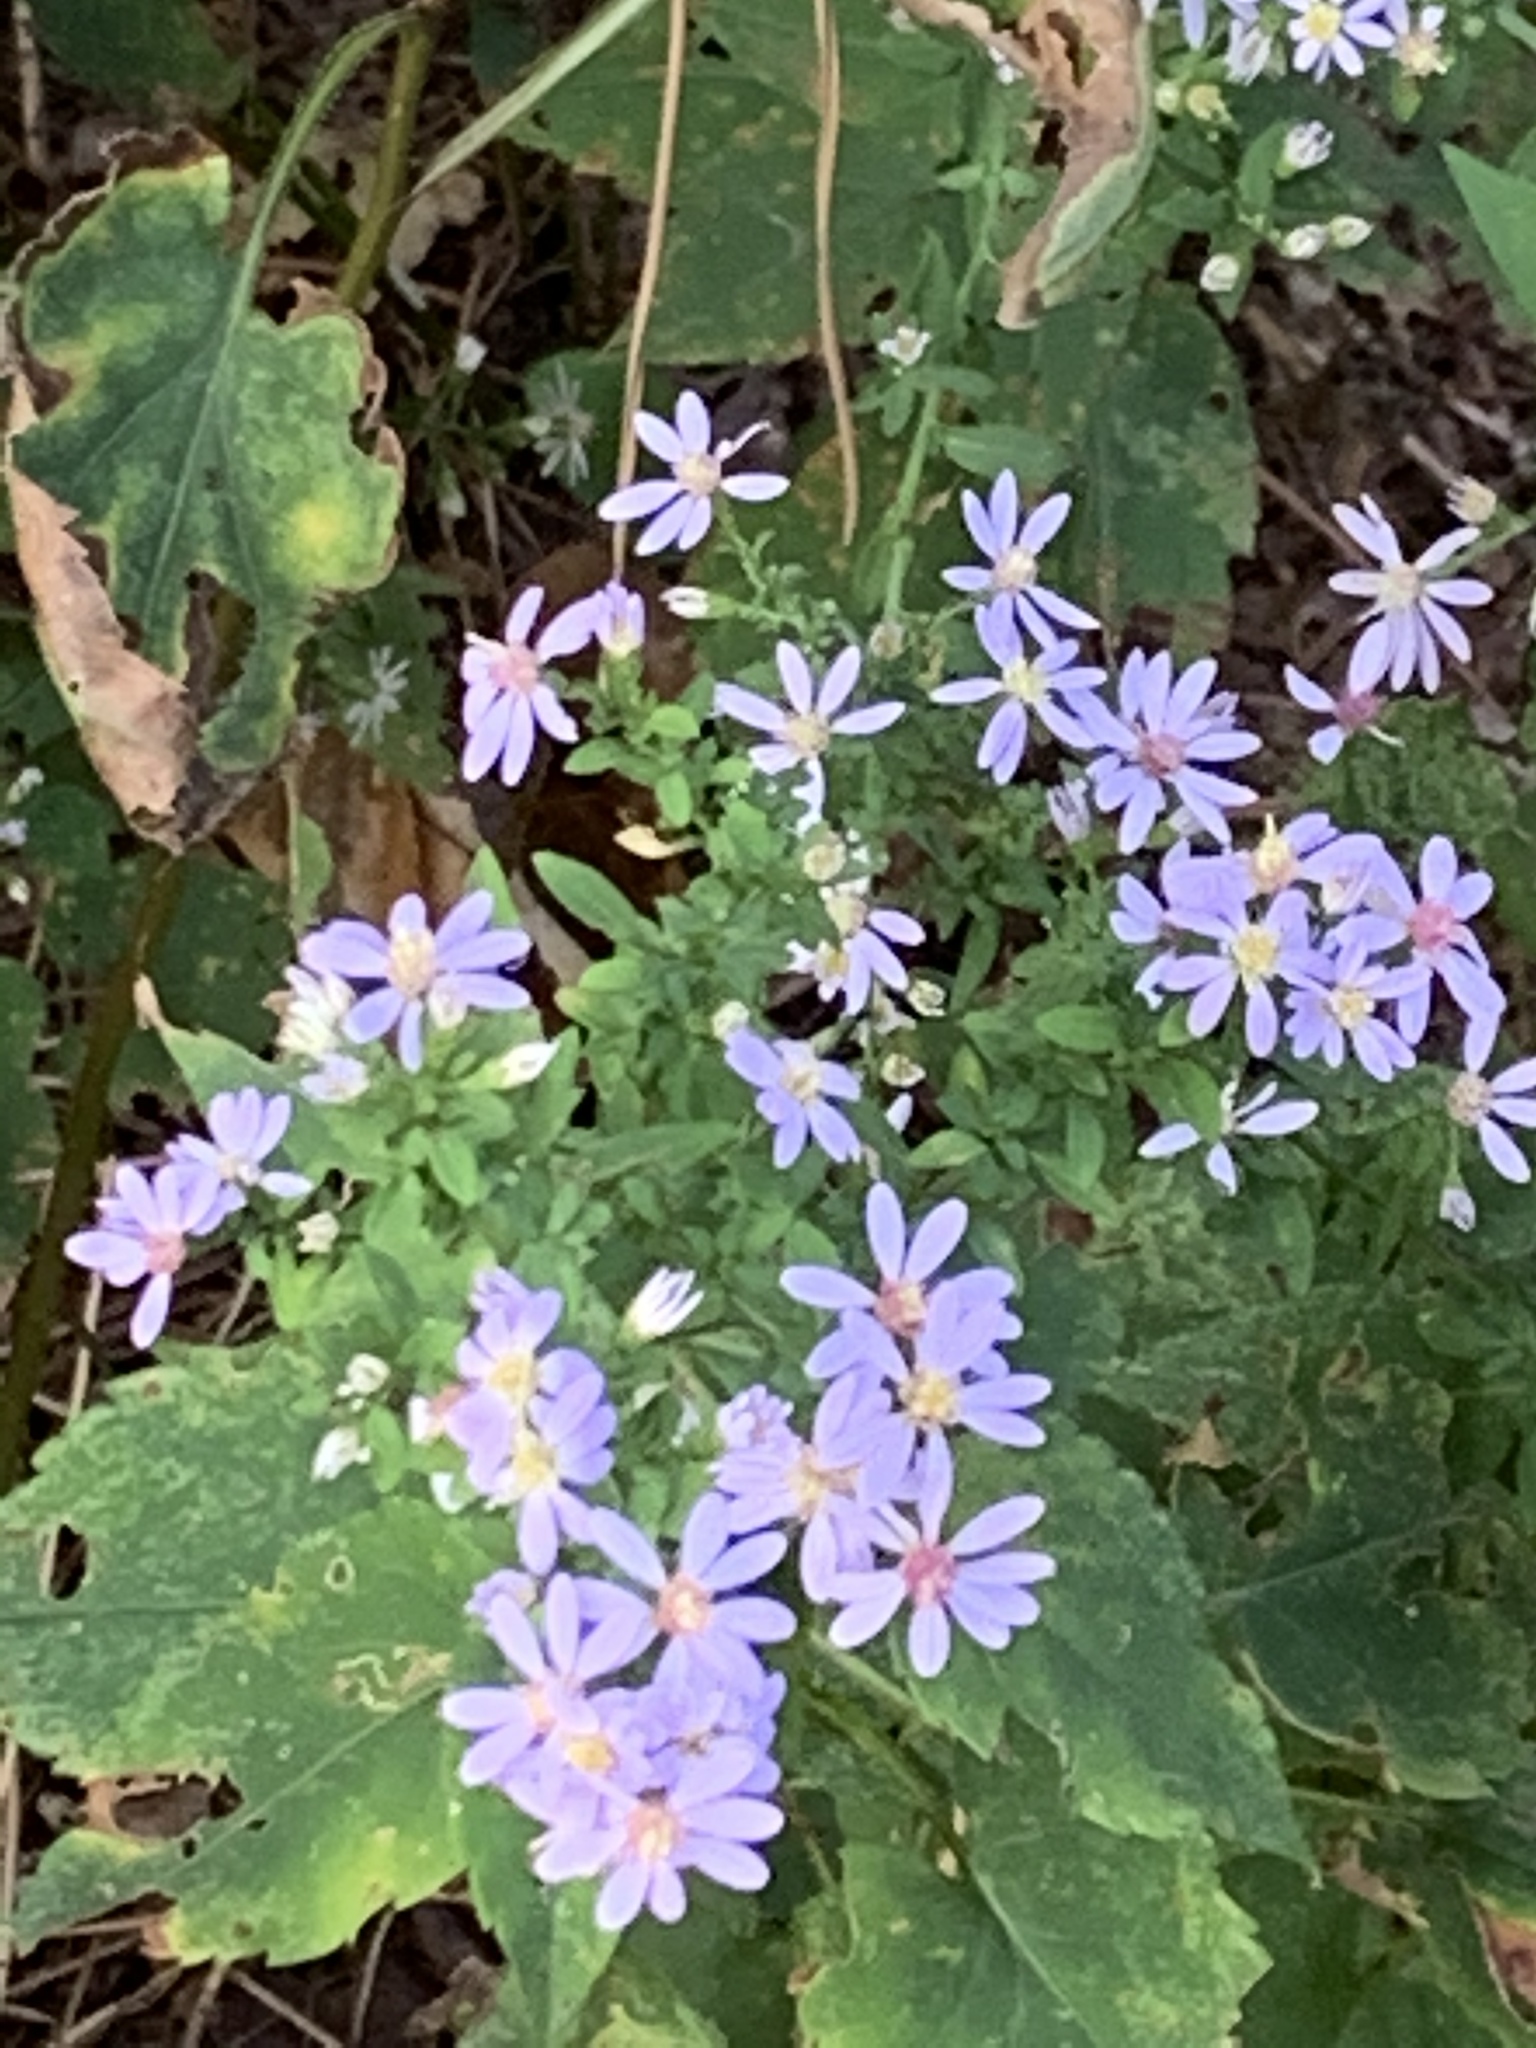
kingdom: Plantae
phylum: Tracheophyta
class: Magnoliopsida
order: Asterales
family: Asteraceae
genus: Symphyotrichum
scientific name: Symphyotrichum cordifolium
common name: Beeweed
